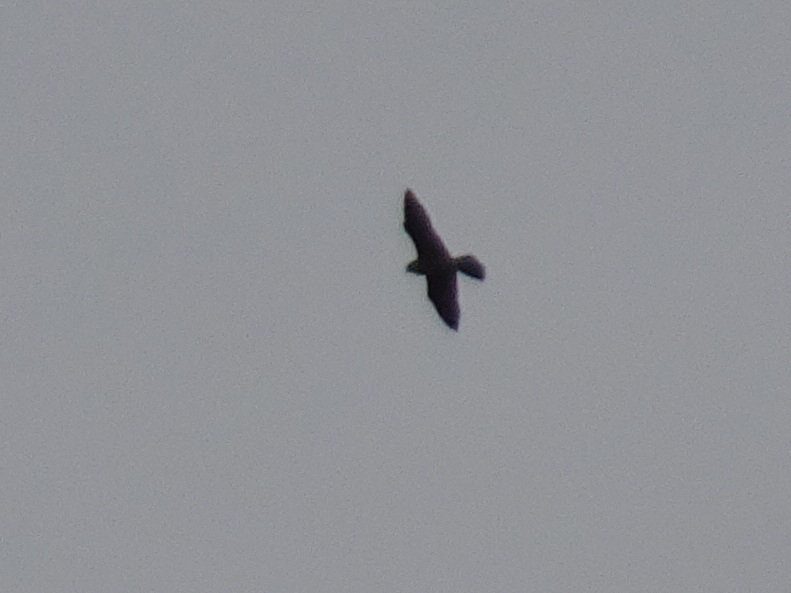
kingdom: Animalia
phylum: Chordata
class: Aves
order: Falconiformes
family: Falconidae
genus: Falco
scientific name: Falco peregrinus
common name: Peregrine falcon
